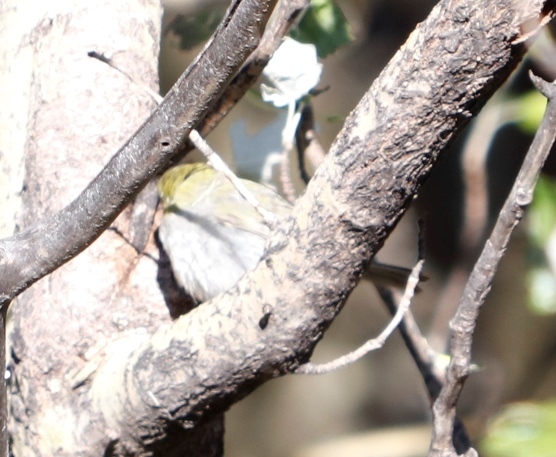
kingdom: Animalia
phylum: Chordata
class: Aves
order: Passeriformes
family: Zosteropidae
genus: Zosterops
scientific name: Zosterops virens
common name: Cape white-eye
